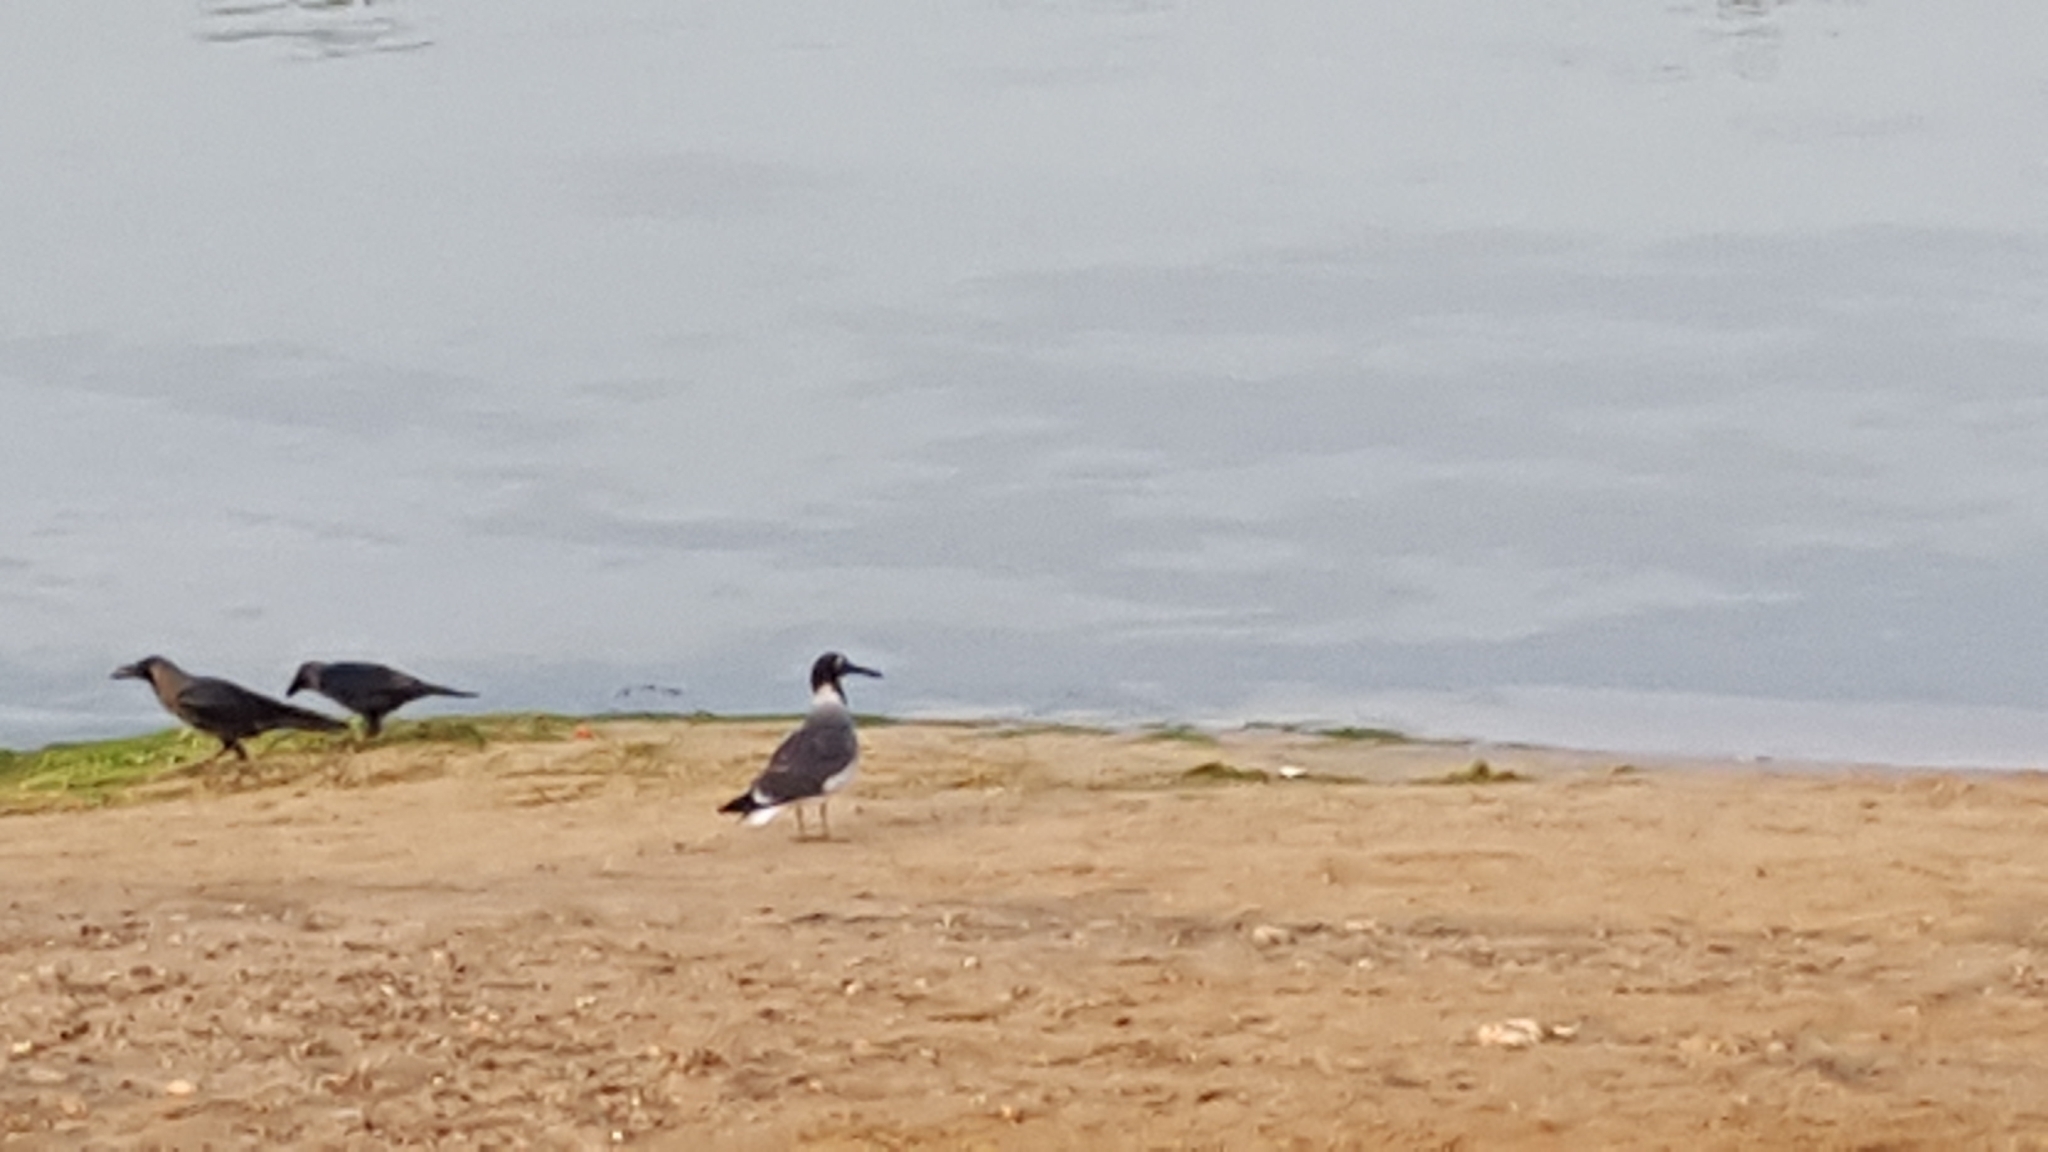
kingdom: Animalia
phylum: Chordata
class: Aves
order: Charadriiformes
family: Laridae
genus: Ichthyaetus
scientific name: Ichthyaetus leucophthalmus
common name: White-eyed gull
